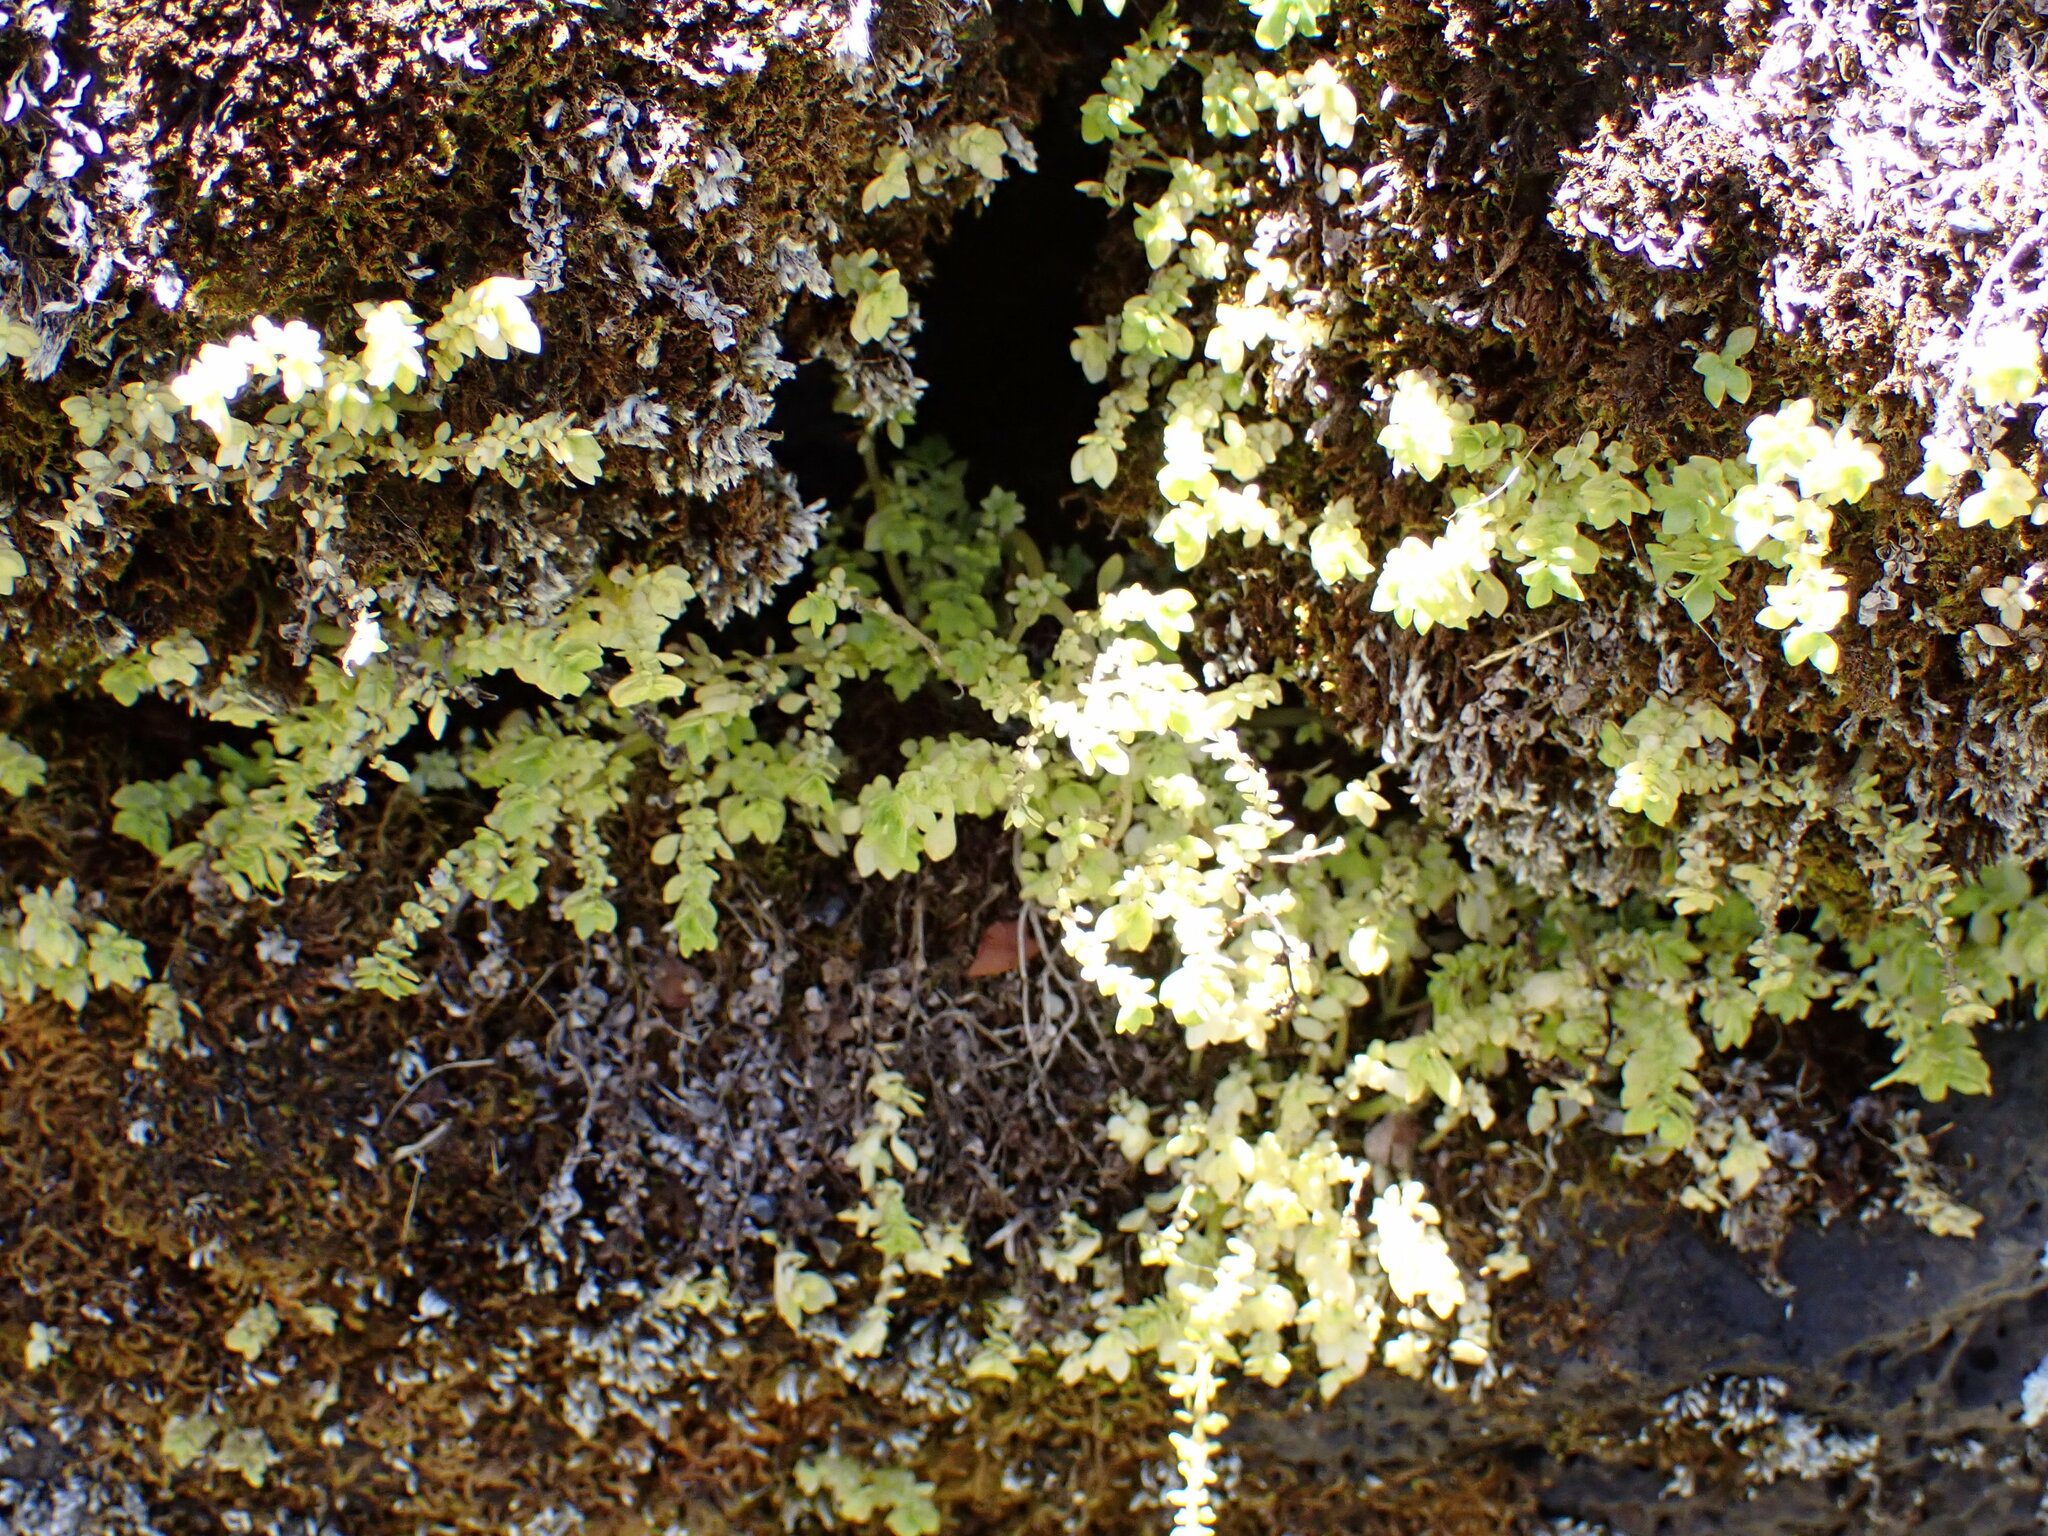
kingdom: Plantae
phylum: Tracheophyta
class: Magnoliopsida
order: Rosales
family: Urticaceae
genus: Pilea
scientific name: Pilea microphylla
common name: Artillery-plant
